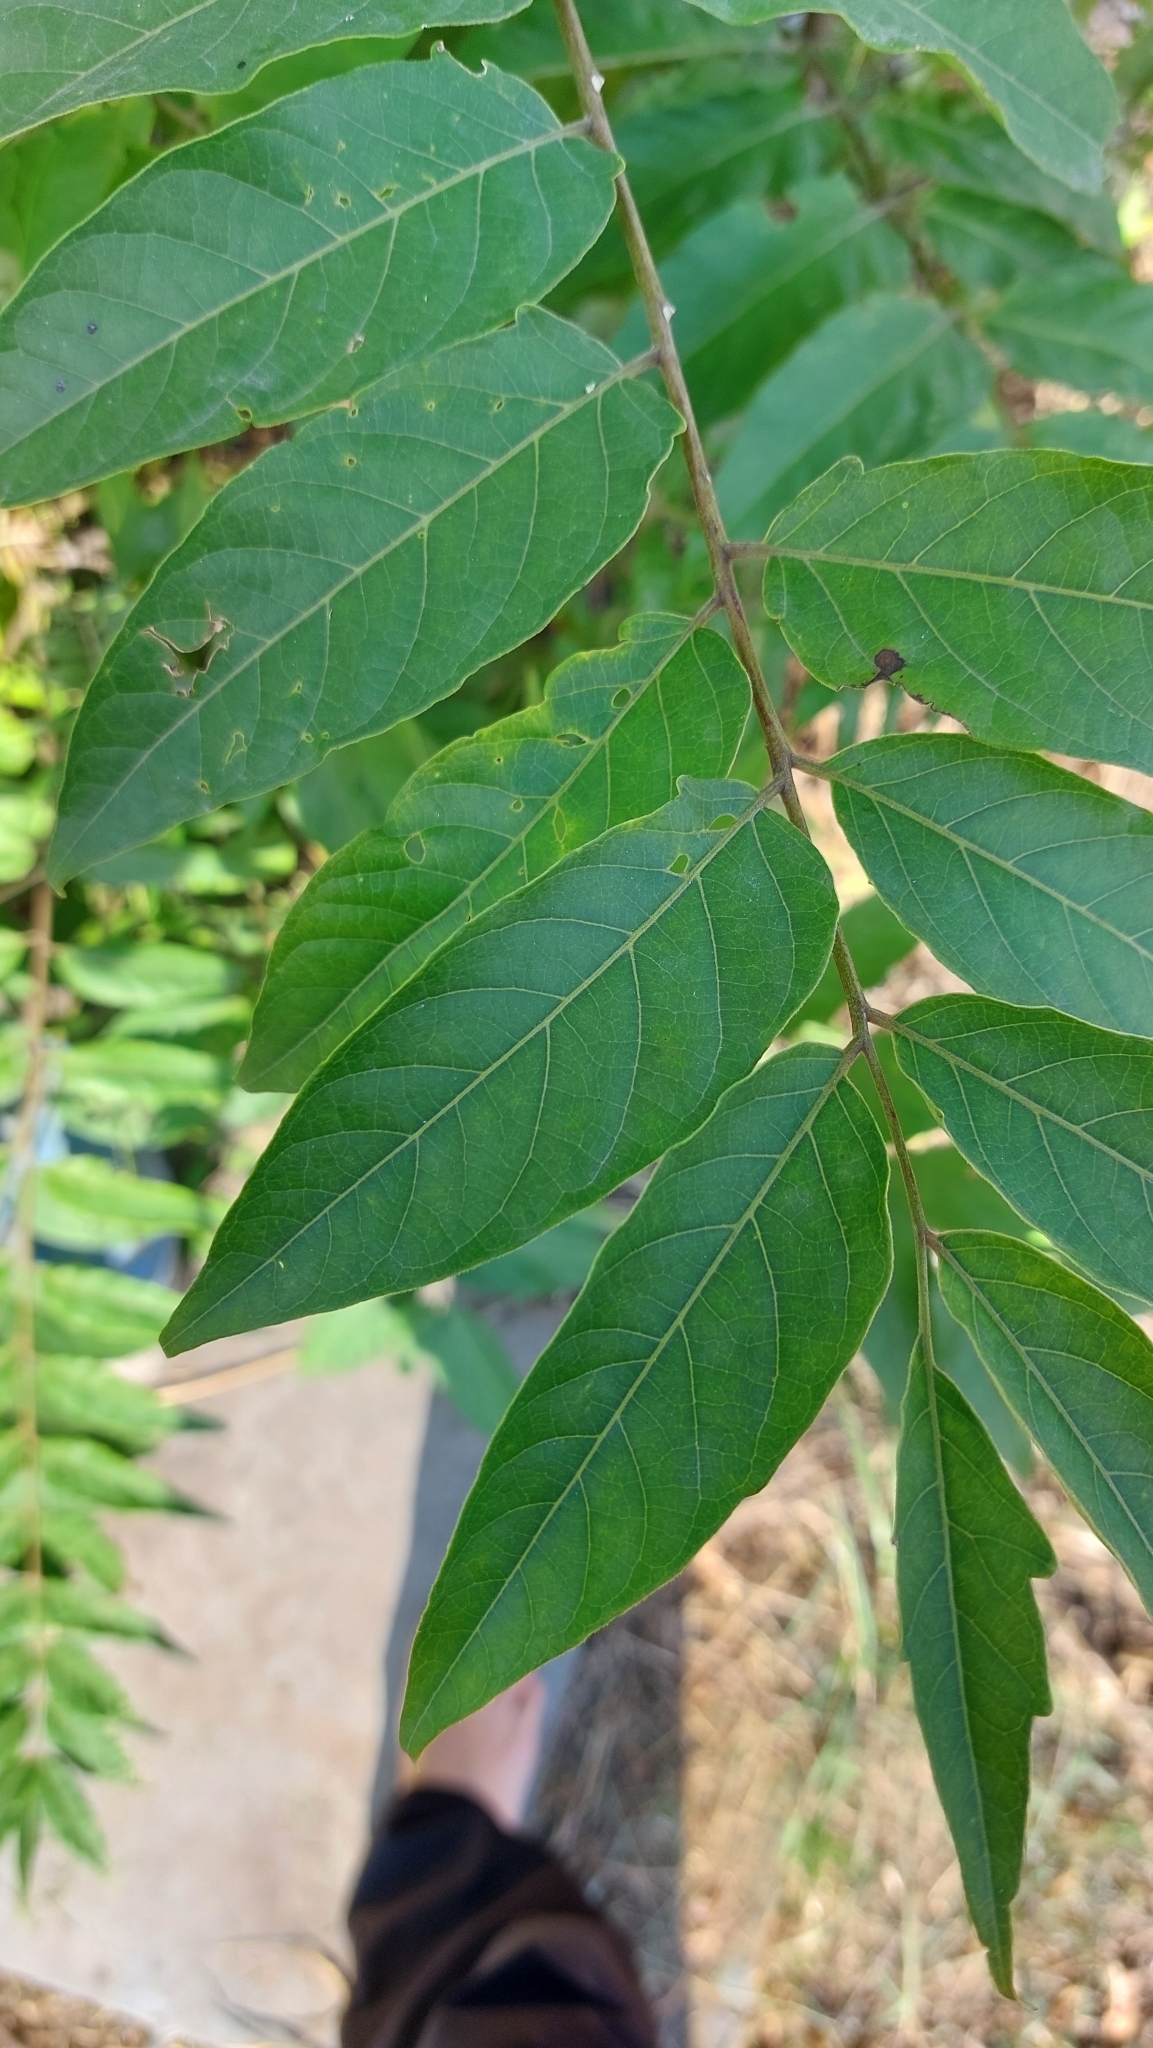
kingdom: Plantae
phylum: Tracheophyta
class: Magnoliopsida
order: Sapindales
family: Simaroubaceae
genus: Ailanthus
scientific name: Ailanthus altissima
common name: Tree-of-heaven
